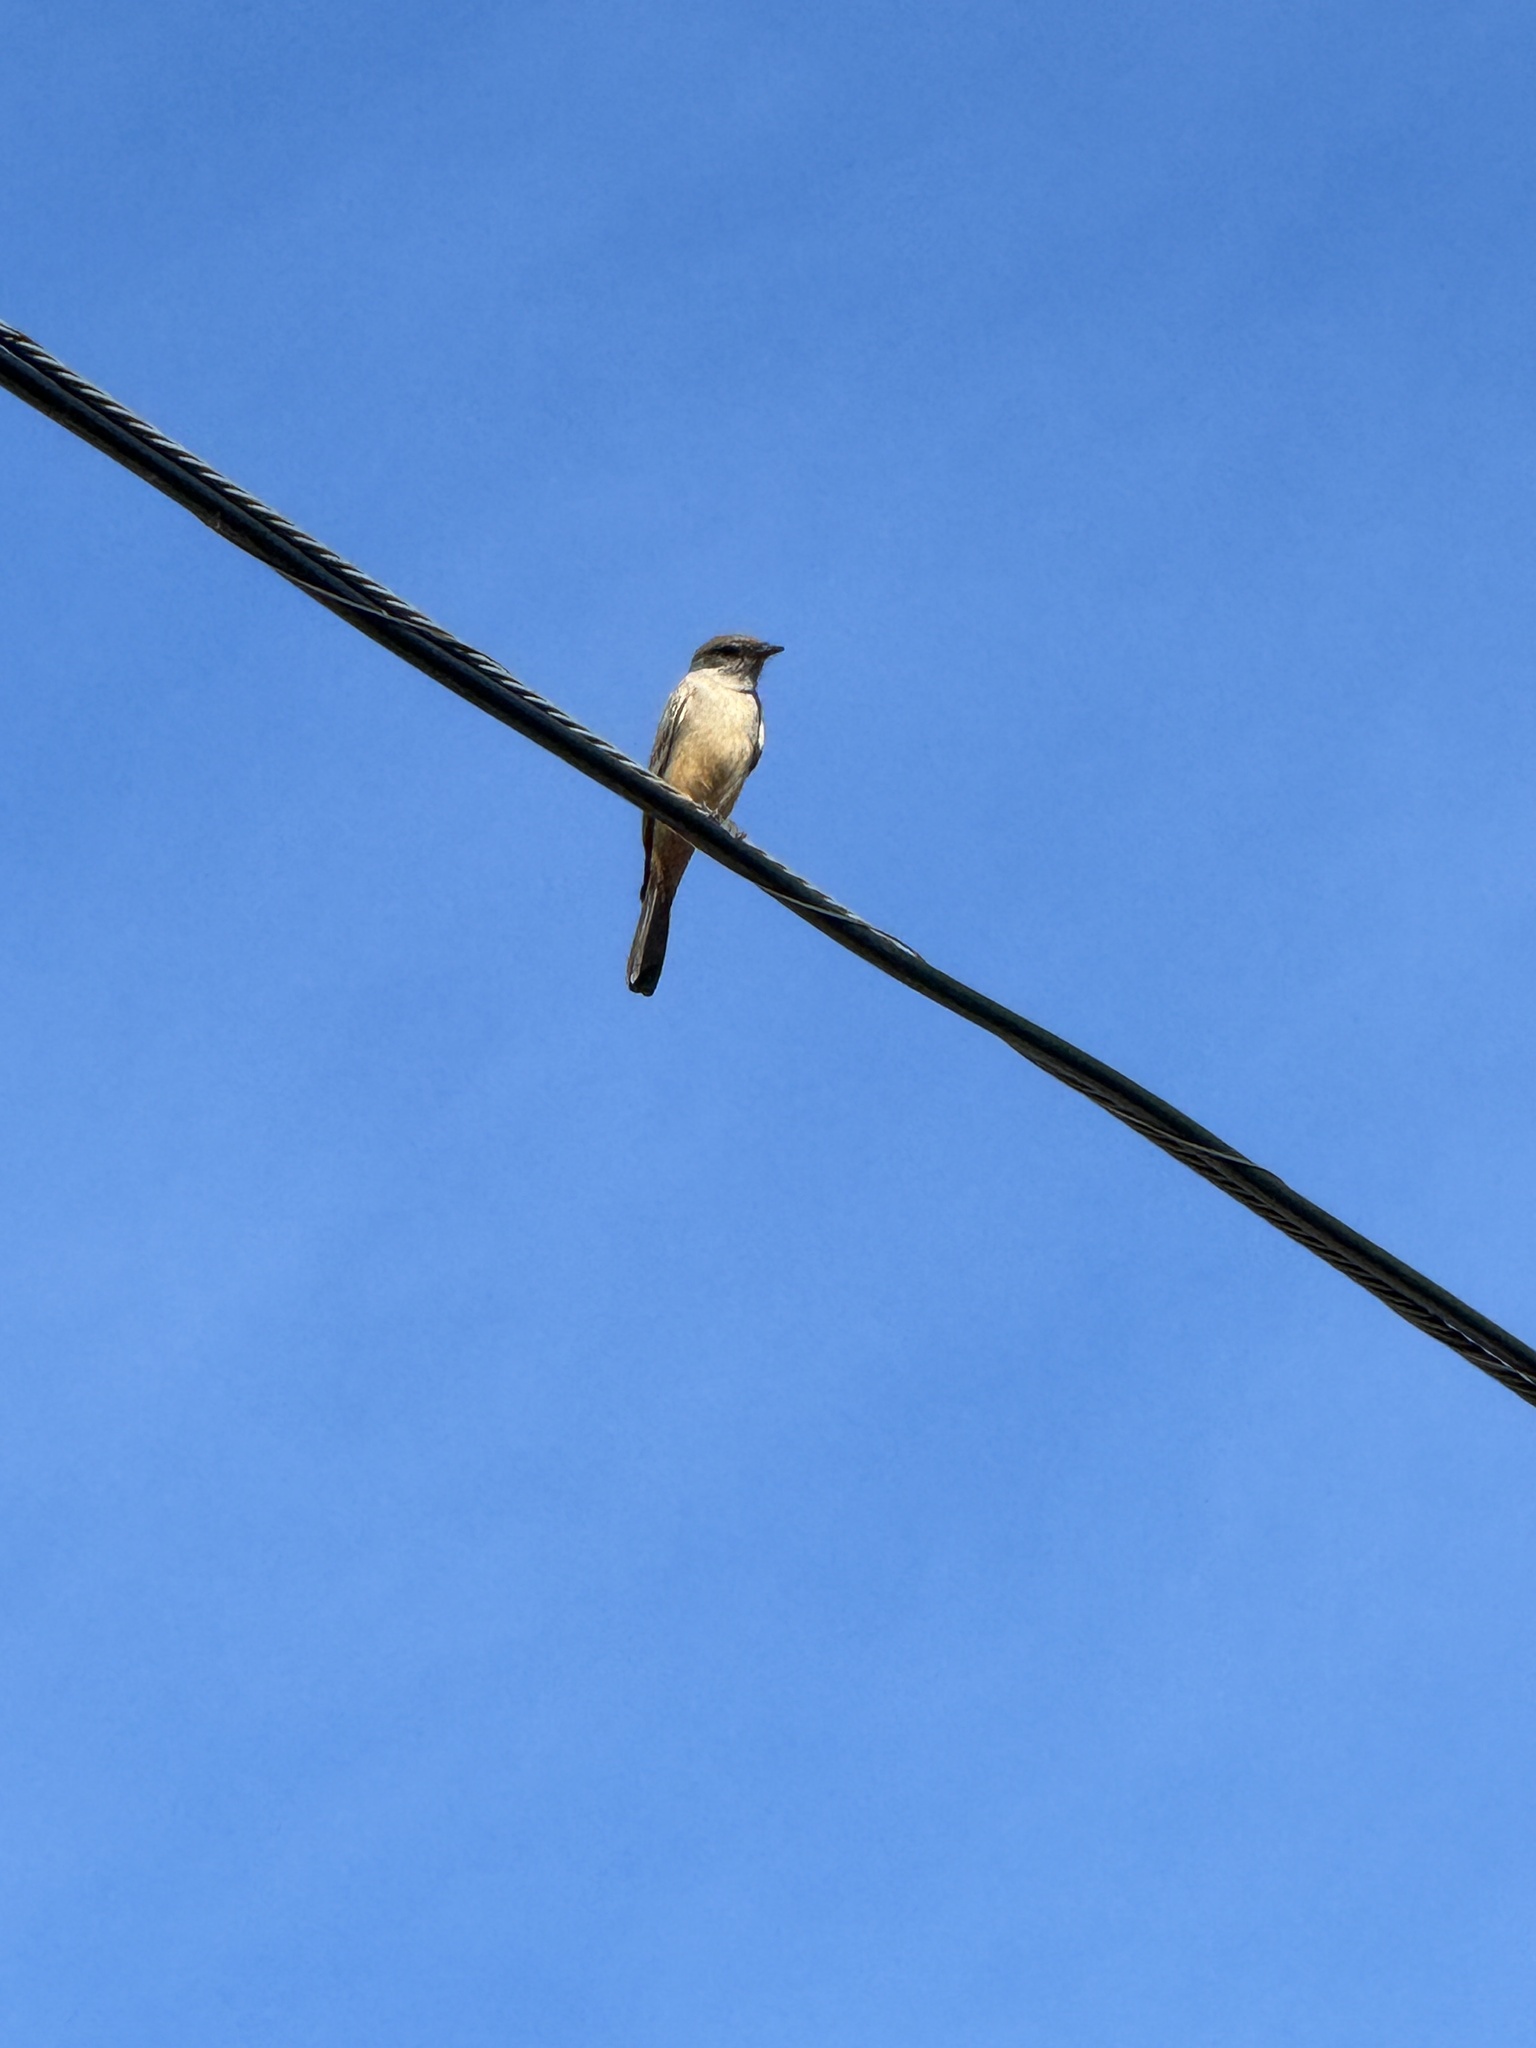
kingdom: Animalia
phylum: Chordata
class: Aves
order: Passeriformes
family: Tyrannidae
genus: Sayornis
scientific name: Sayornis saya
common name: Say's phoebe
